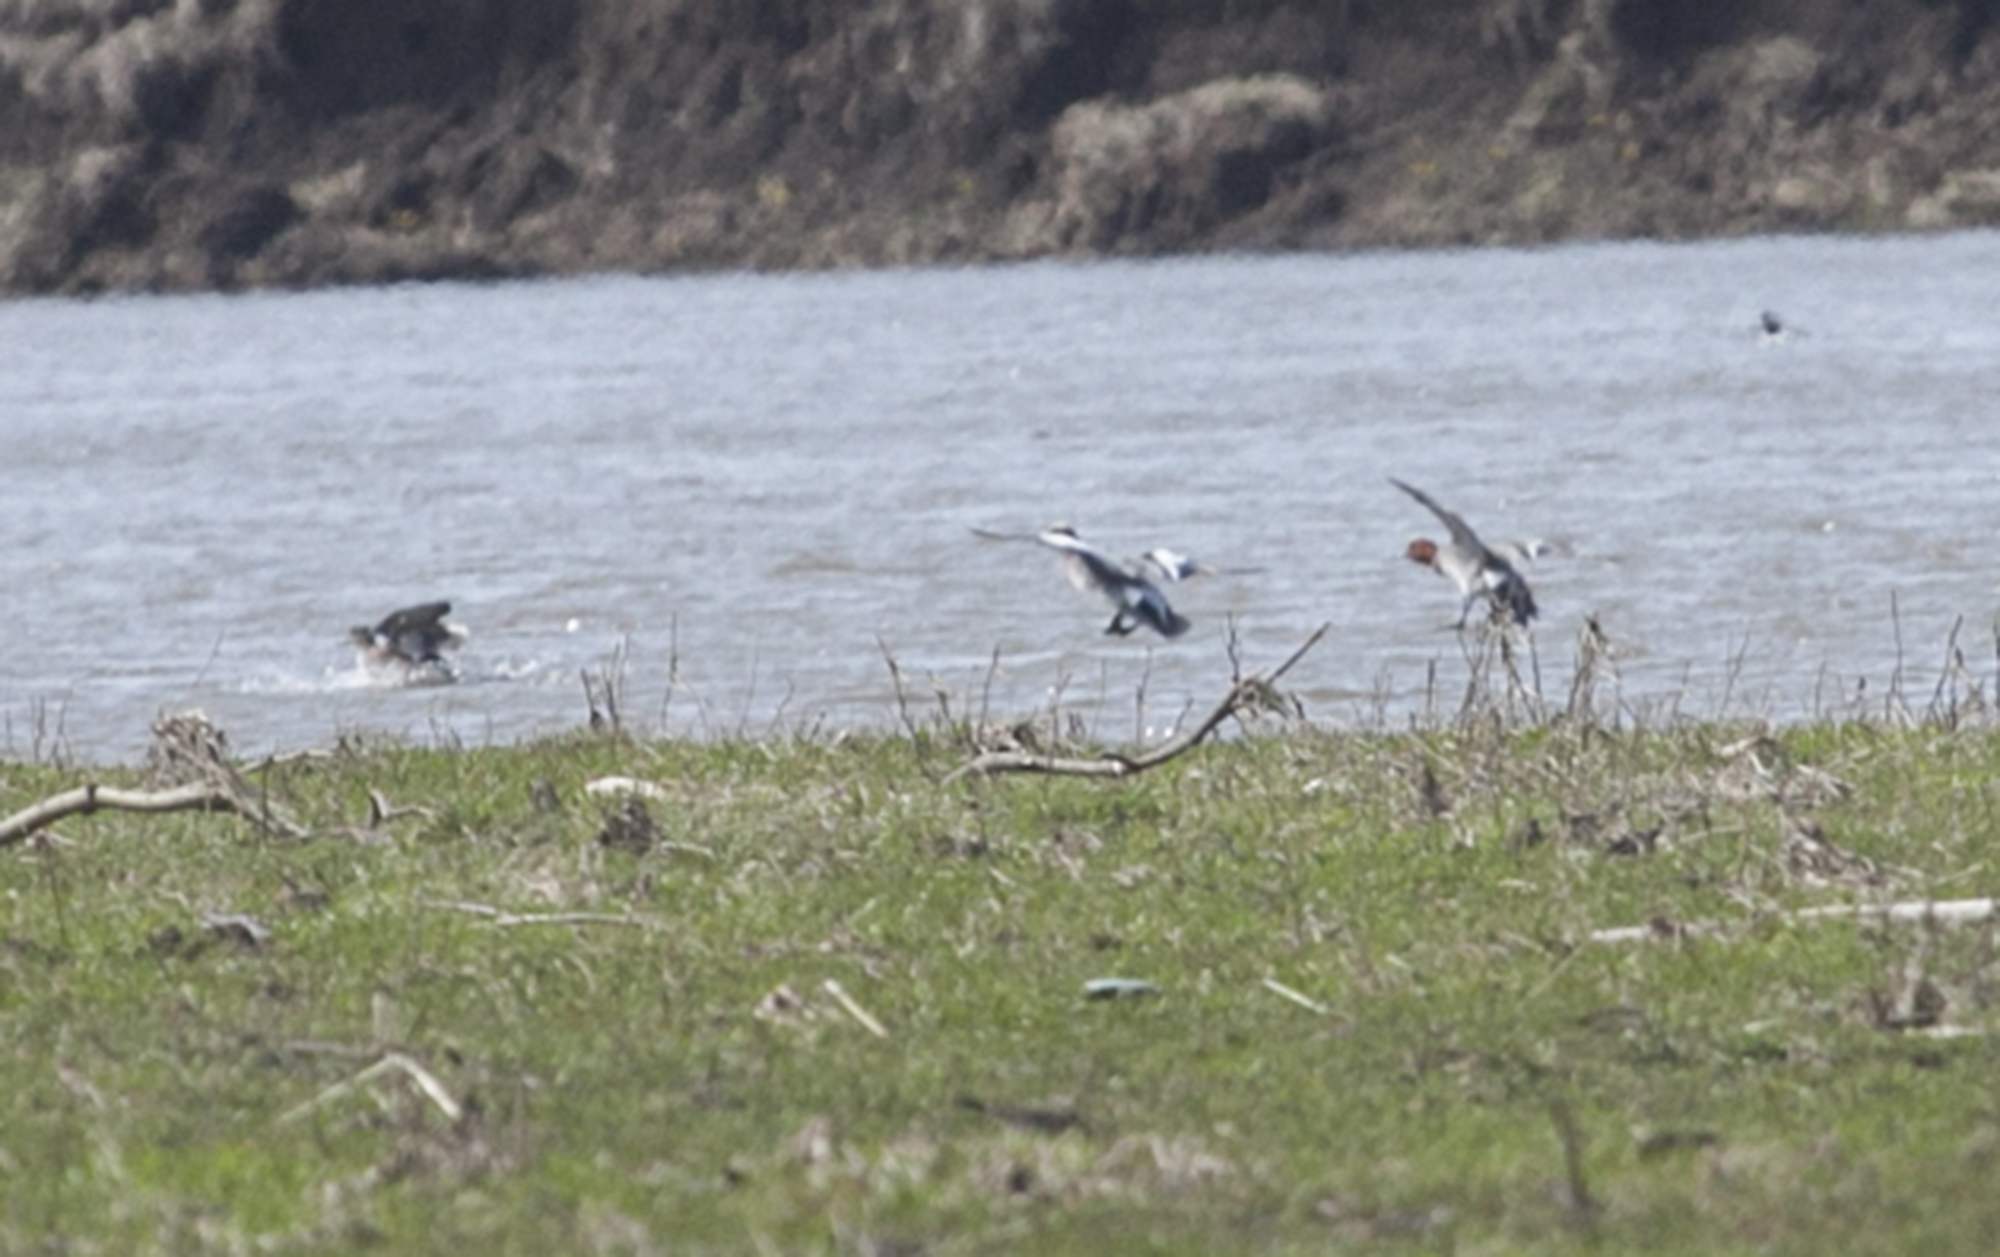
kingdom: Animalia
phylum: Chordata
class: Aves
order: Anseriformes
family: Anatidae
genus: Mareca
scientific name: Mareca penelope
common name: Eurasian wigeon
